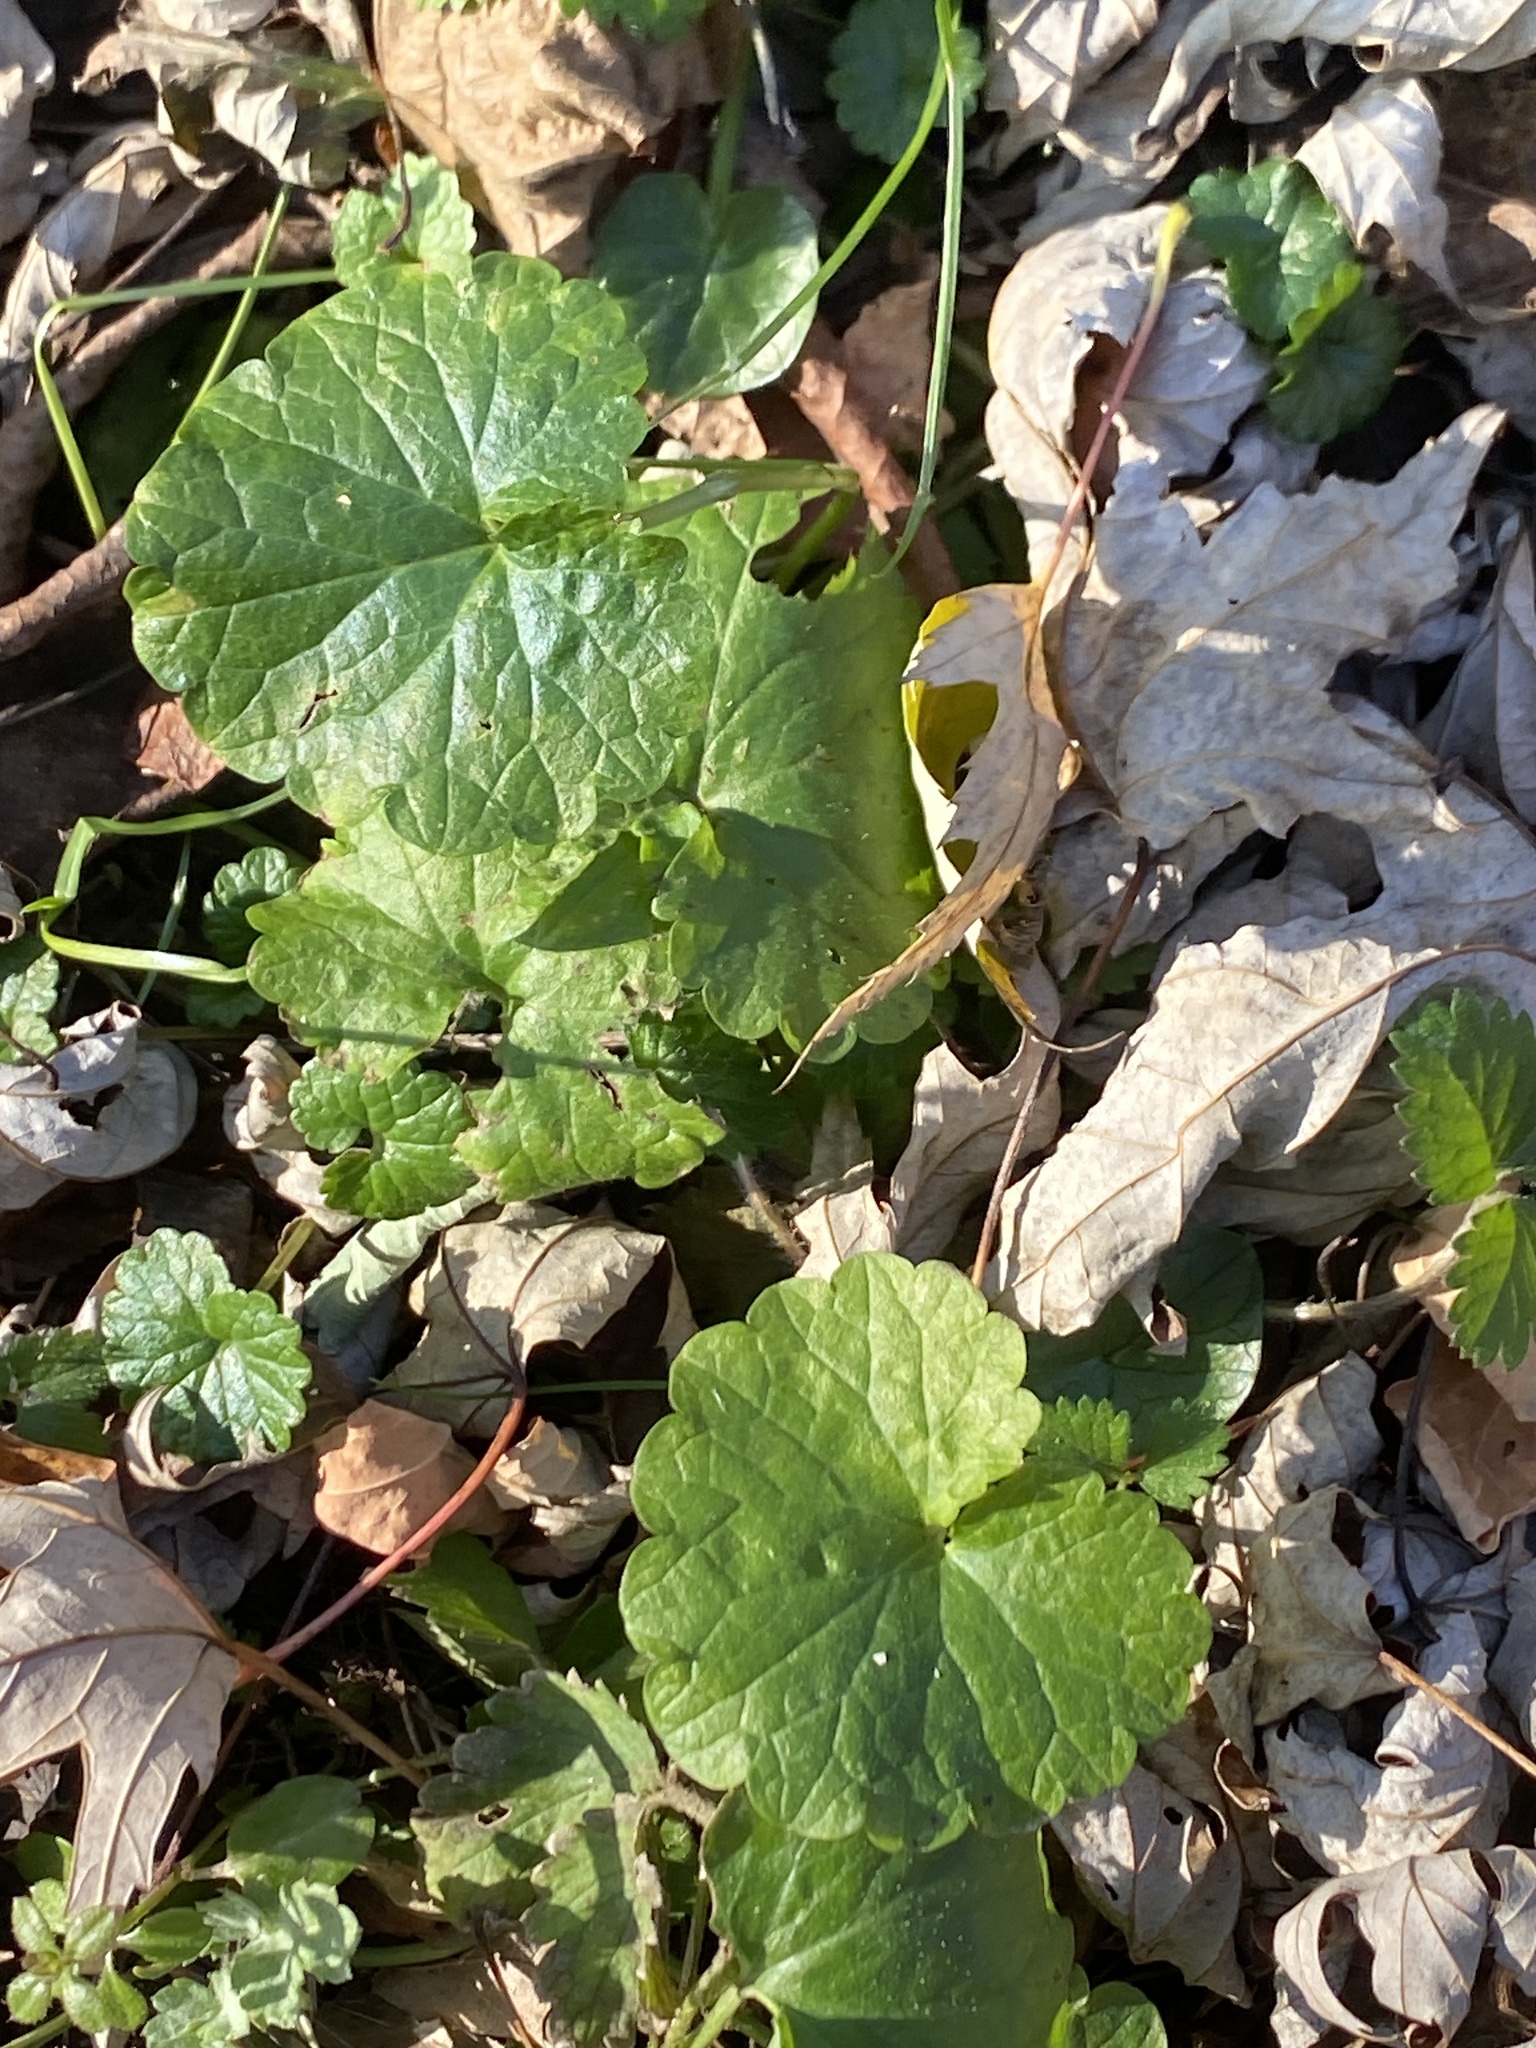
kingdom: Plantae
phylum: Tracheophyta
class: Magnoliopsida
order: Lamiales
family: Lamiaceae
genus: Glechoma
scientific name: Glechoma hederacea
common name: Ground ivy
